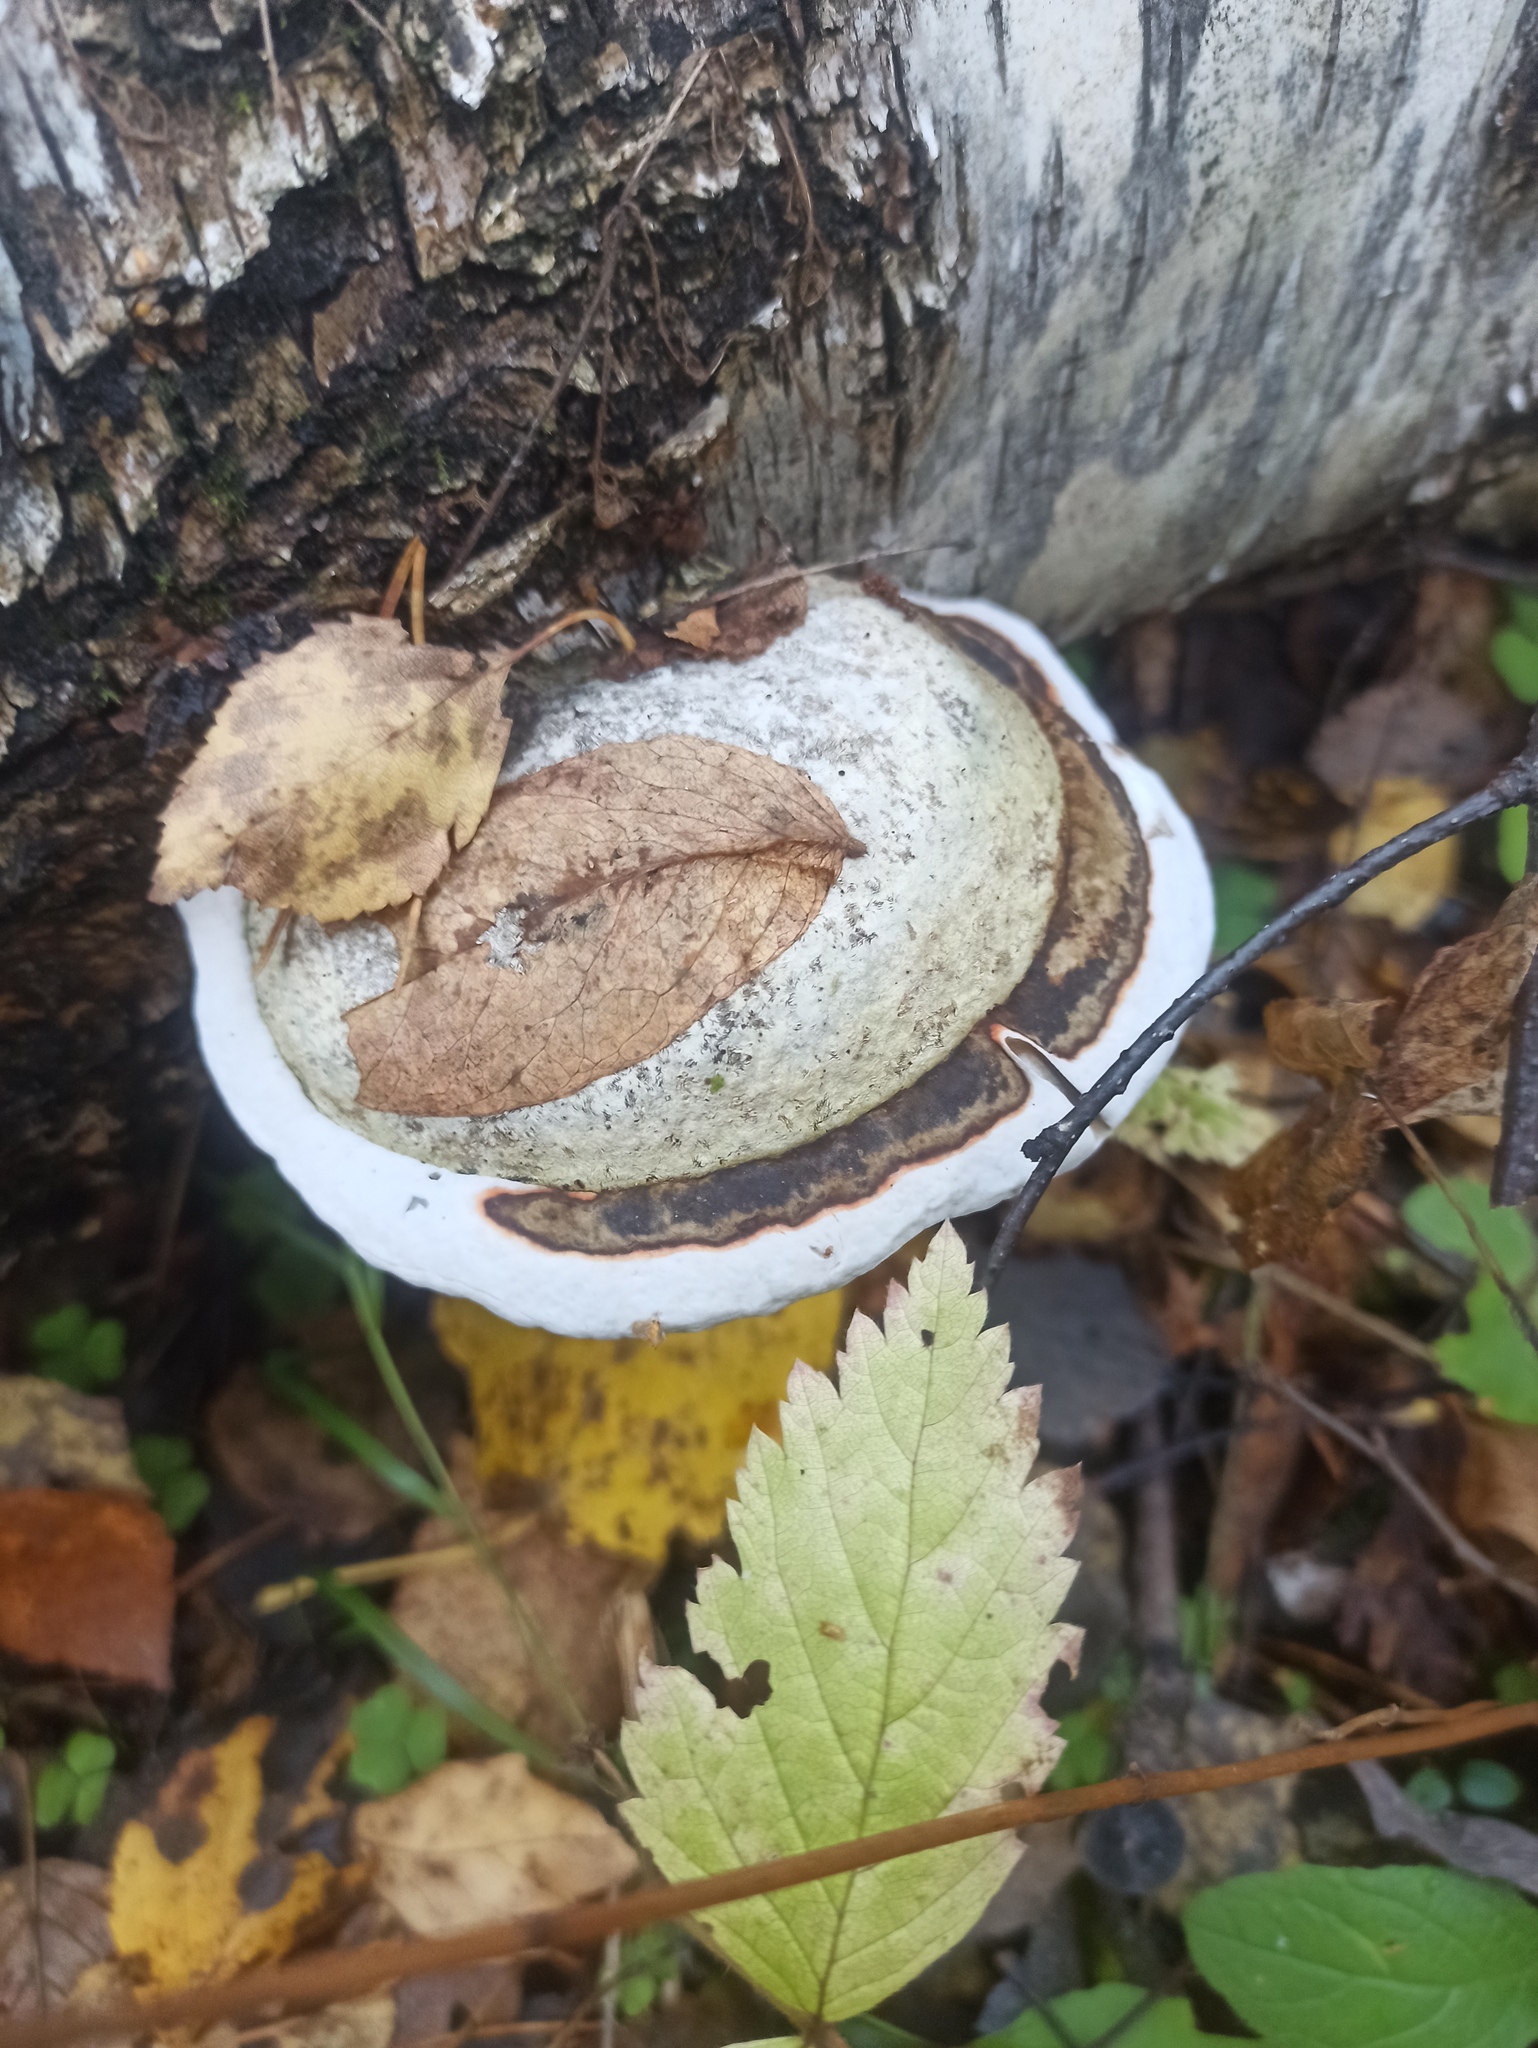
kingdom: Fungi
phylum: Basidiomycota
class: Agaricomycetes
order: Polyporales
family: Polyporaceae
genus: Fomes
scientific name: Fomes fomentarius
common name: Hoof fungus
